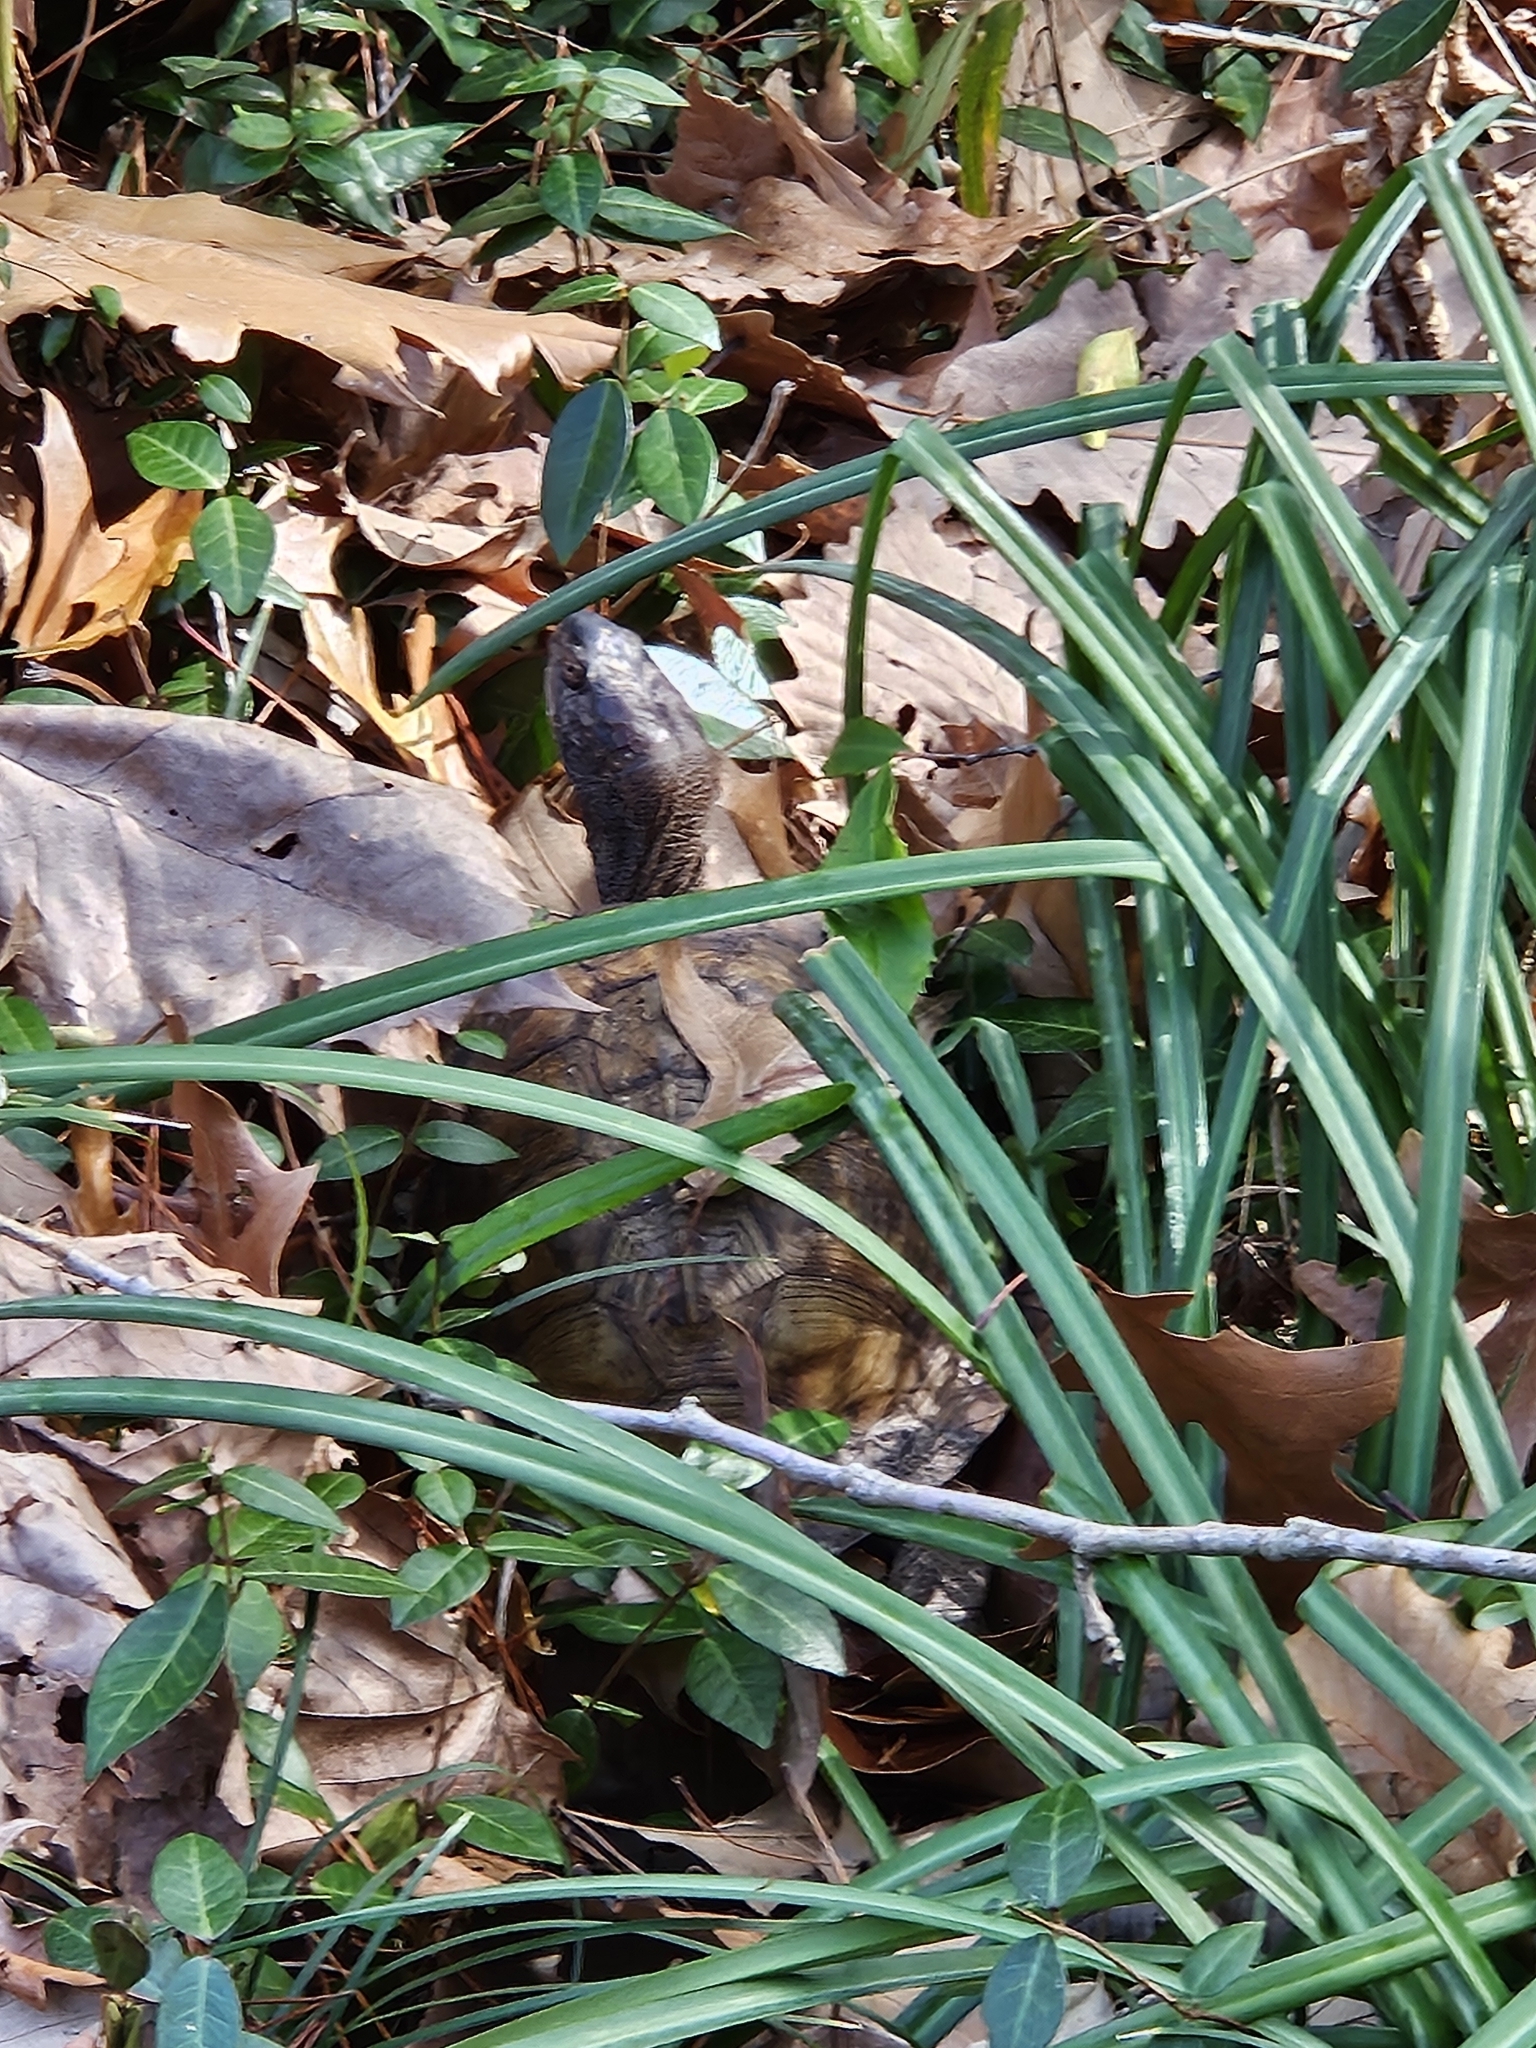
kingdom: Animalia
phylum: Chordata
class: Testudines
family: Emydidae
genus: Terrapene
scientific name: Terrapene carolina
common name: Common box turtle
